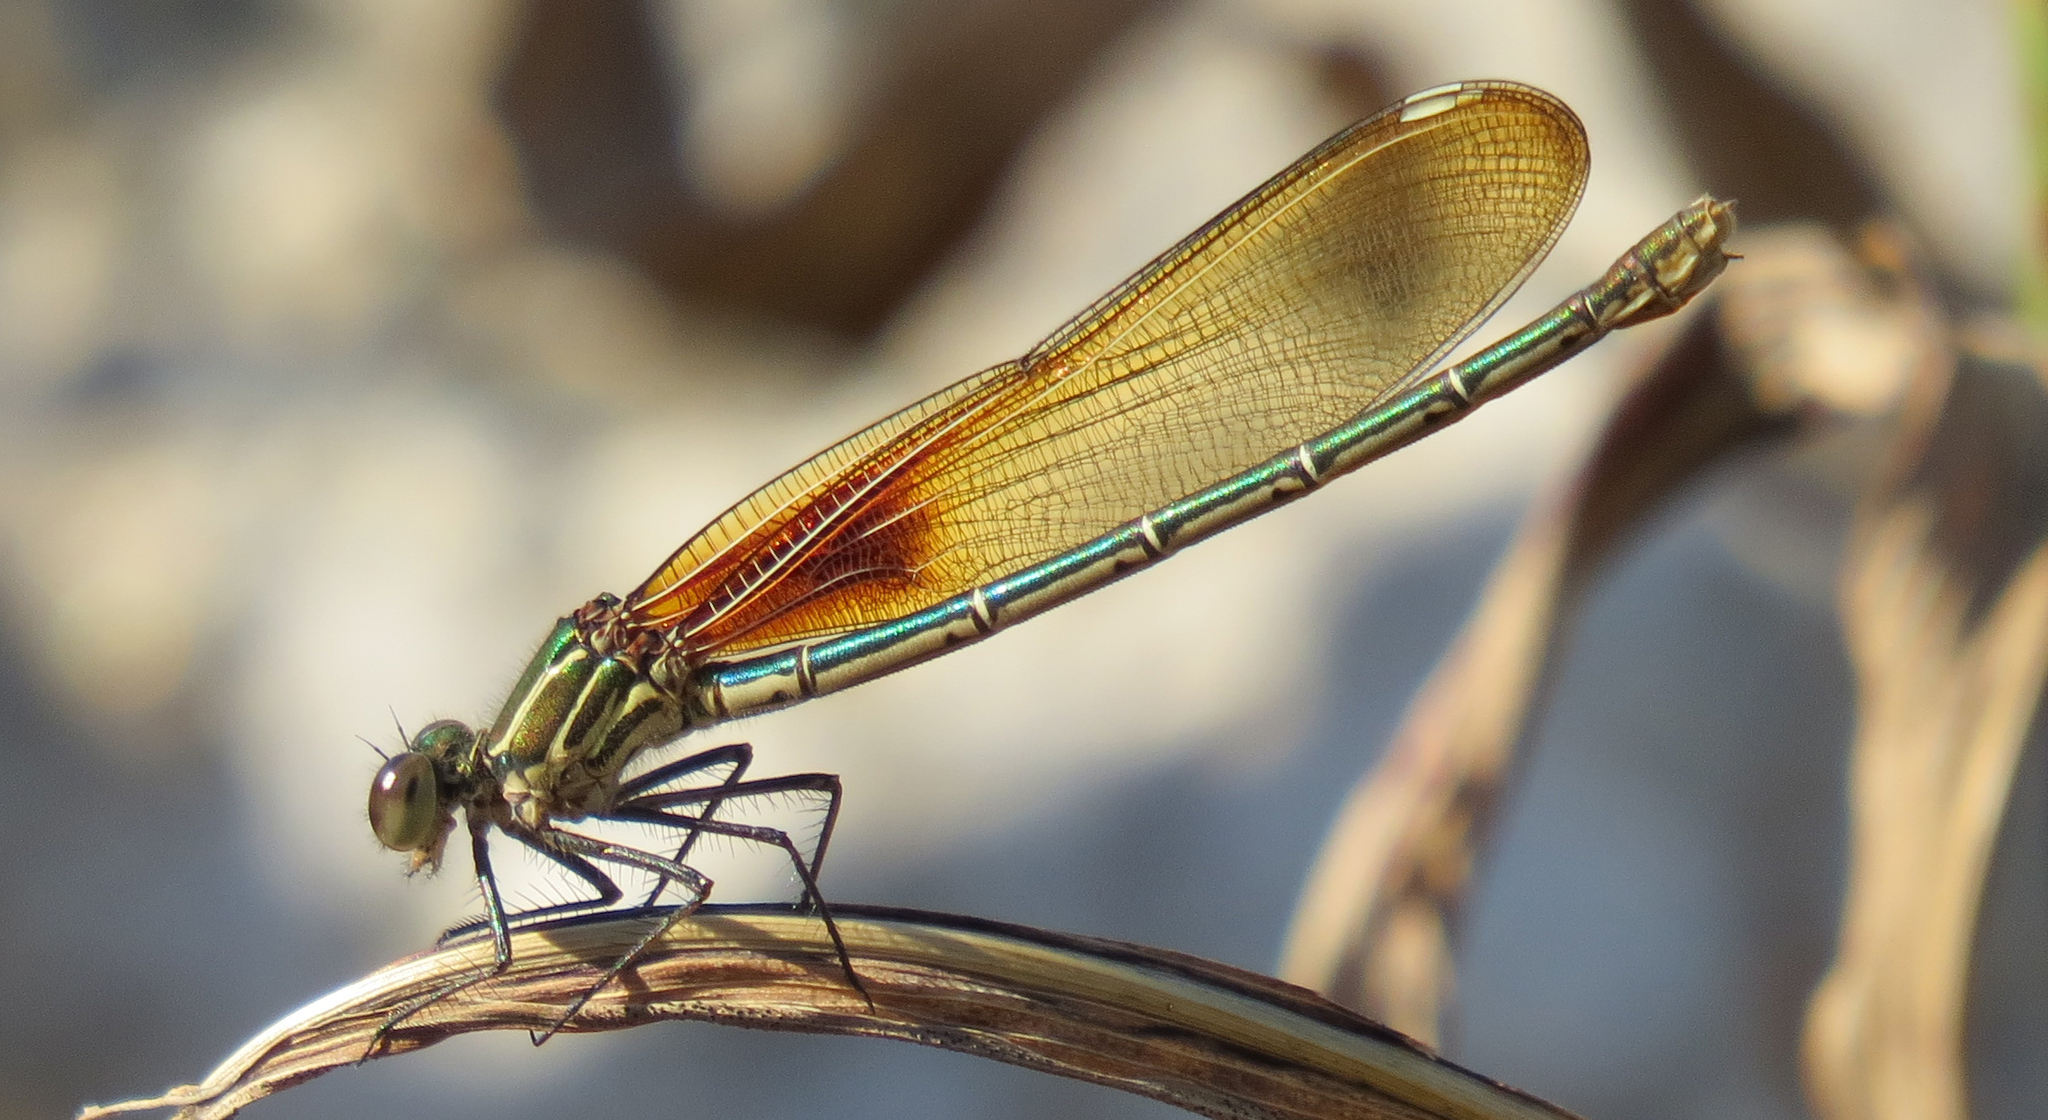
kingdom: Animalia
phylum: Arthropoda
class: Insecta
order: Odonata
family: Calopterygidae
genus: Hetaerina
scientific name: Hetaerina americana
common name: American rubyspot
